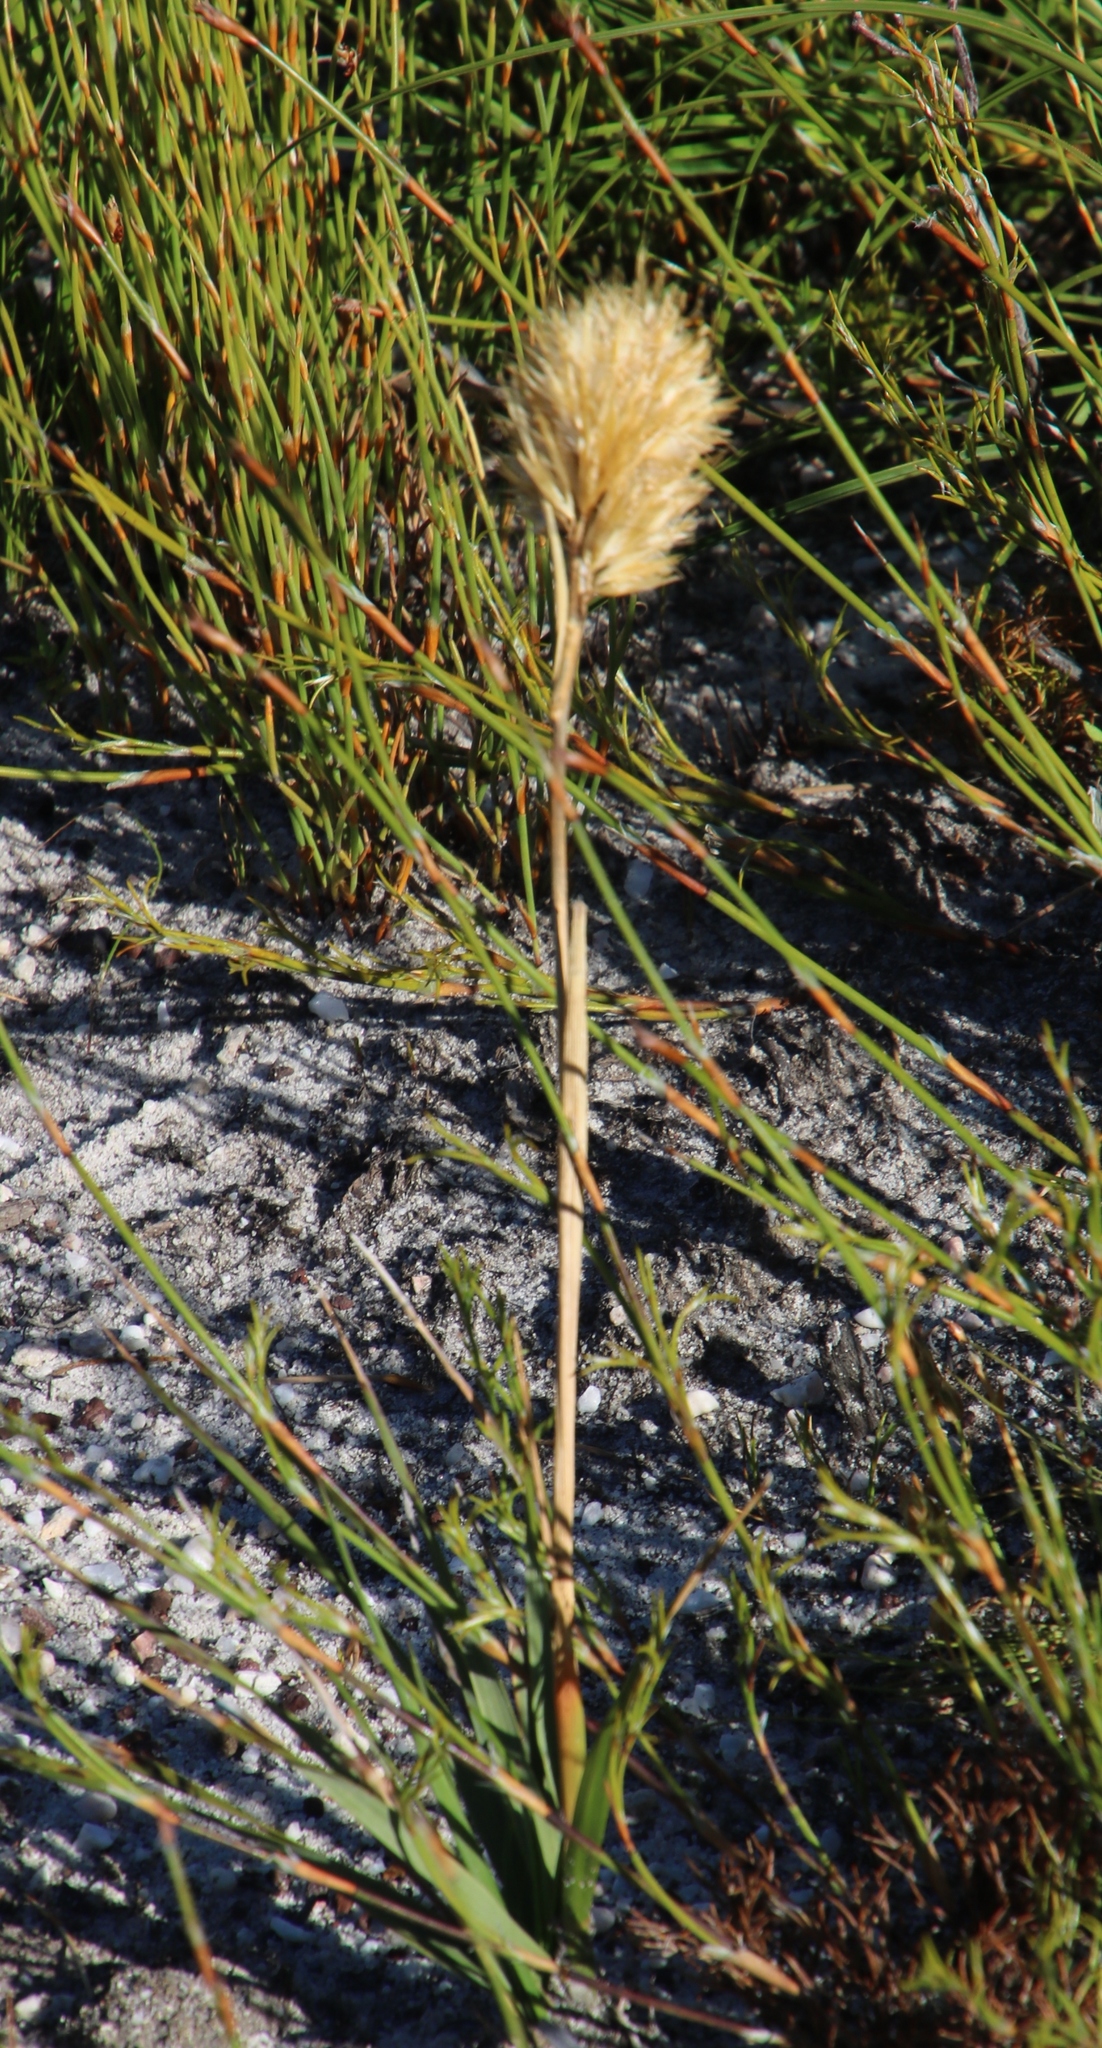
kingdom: Plantae
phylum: Tracheophyta
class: Liliopsida
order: Poales
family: Poaceae
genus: Geochloa
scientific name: Geochloa rufa
